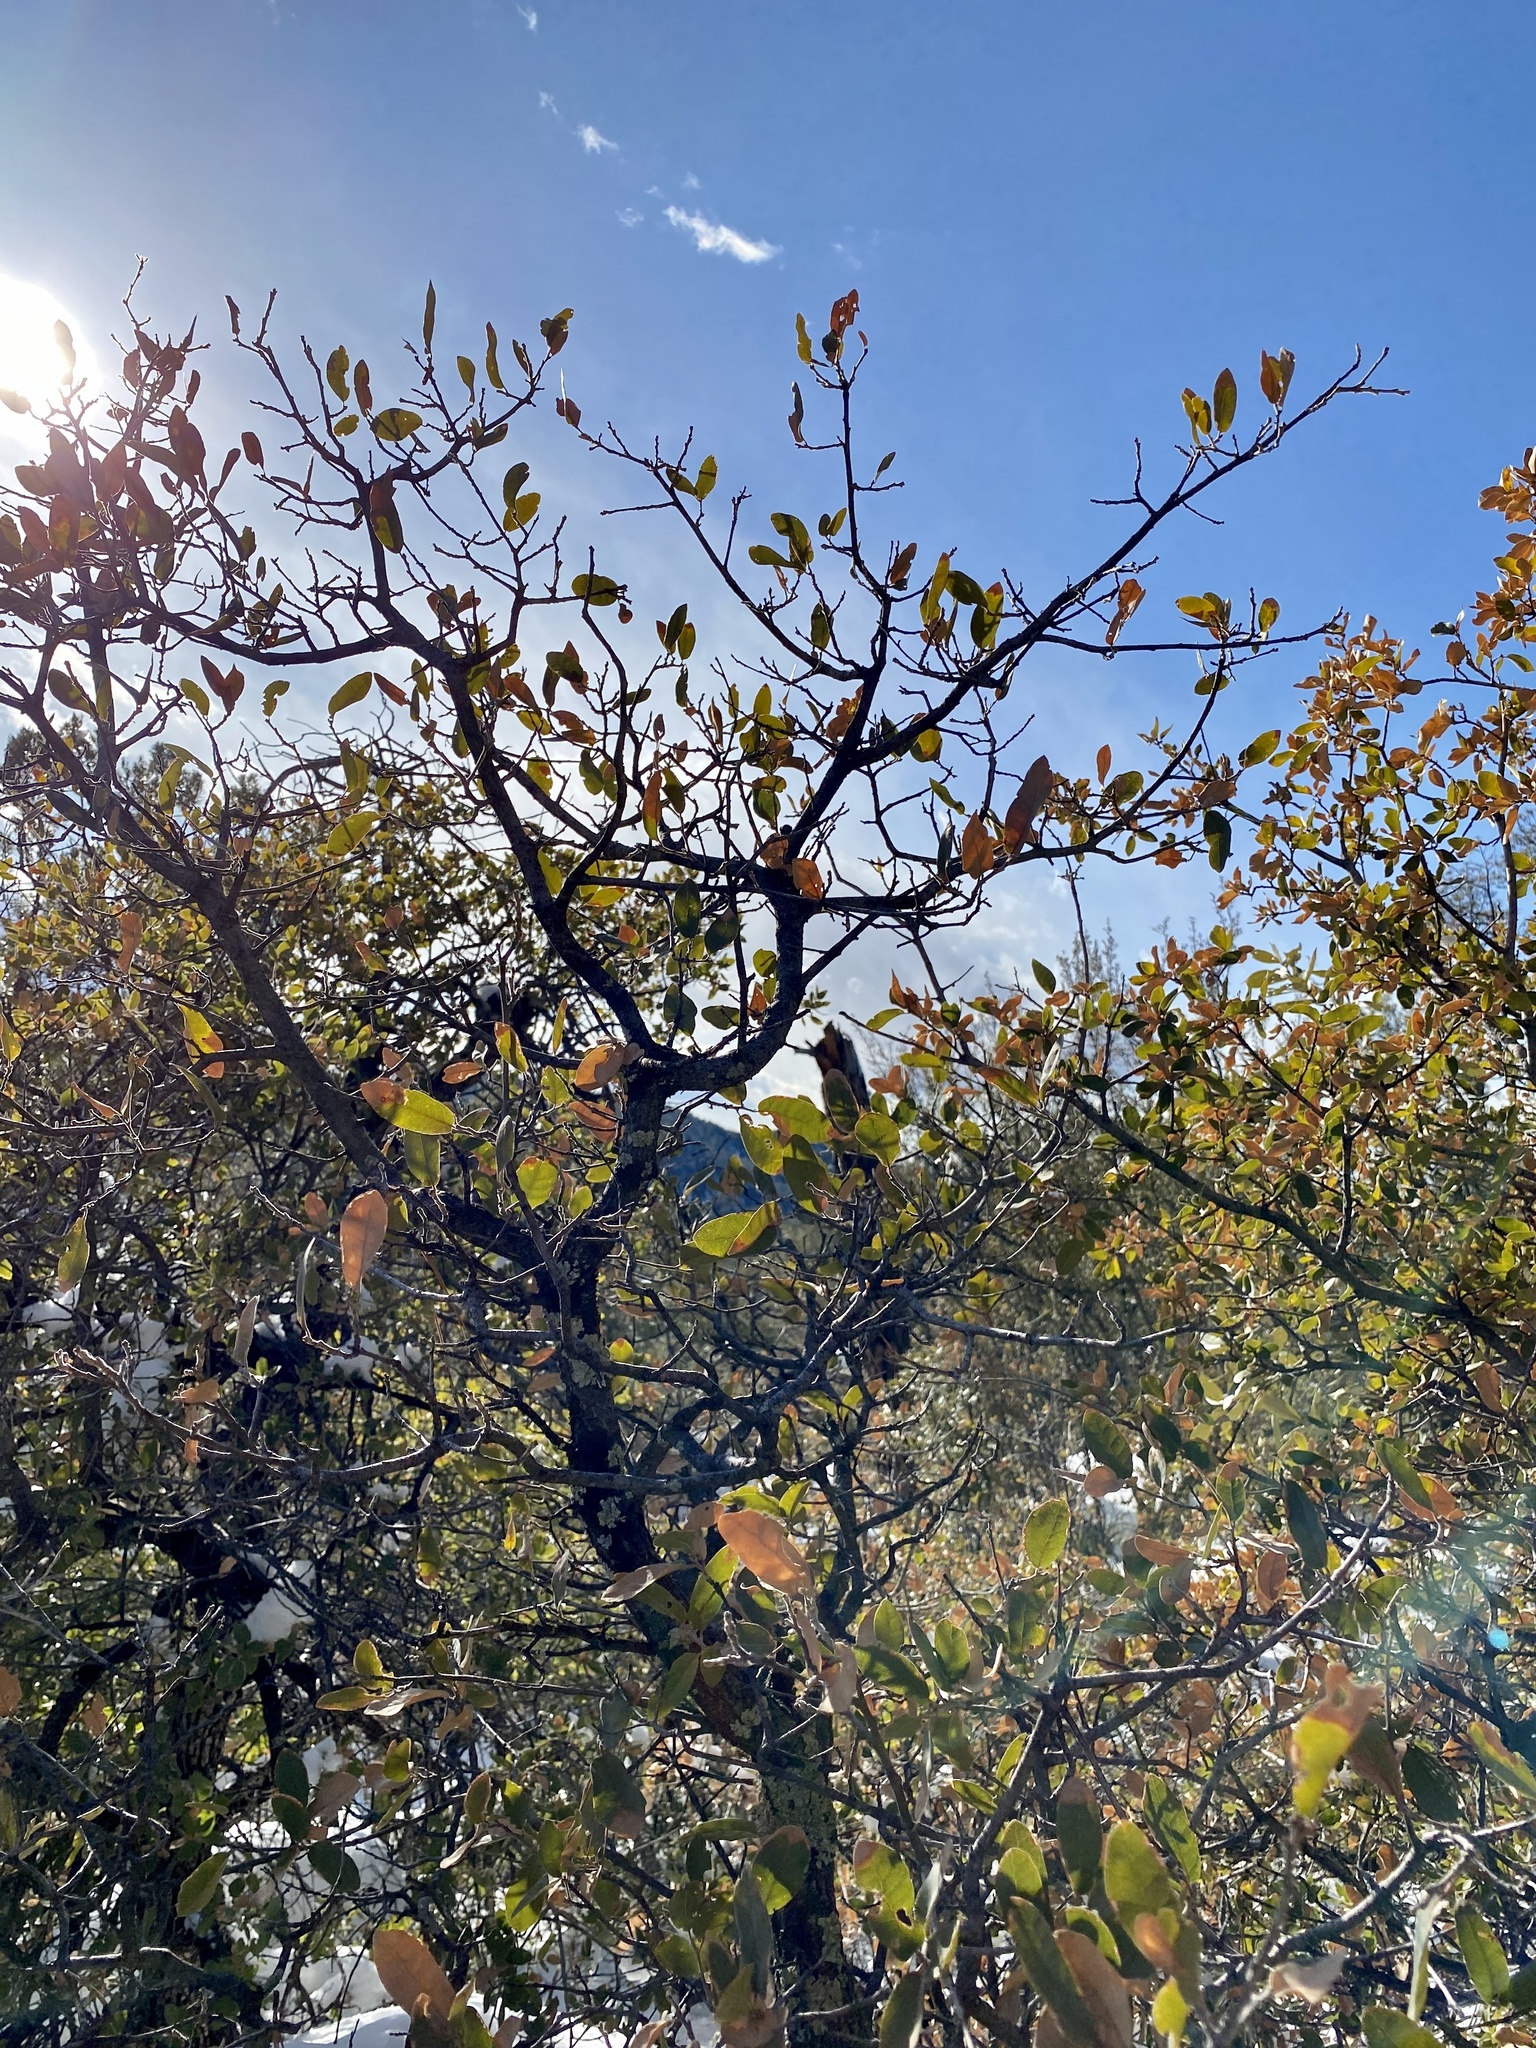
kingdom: Plantae
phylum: Tracheophyta
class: Magnoliopsida
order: Fagales
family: Fagaceae
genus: Quercus
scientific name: Quercus grisea
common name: Gray oak
